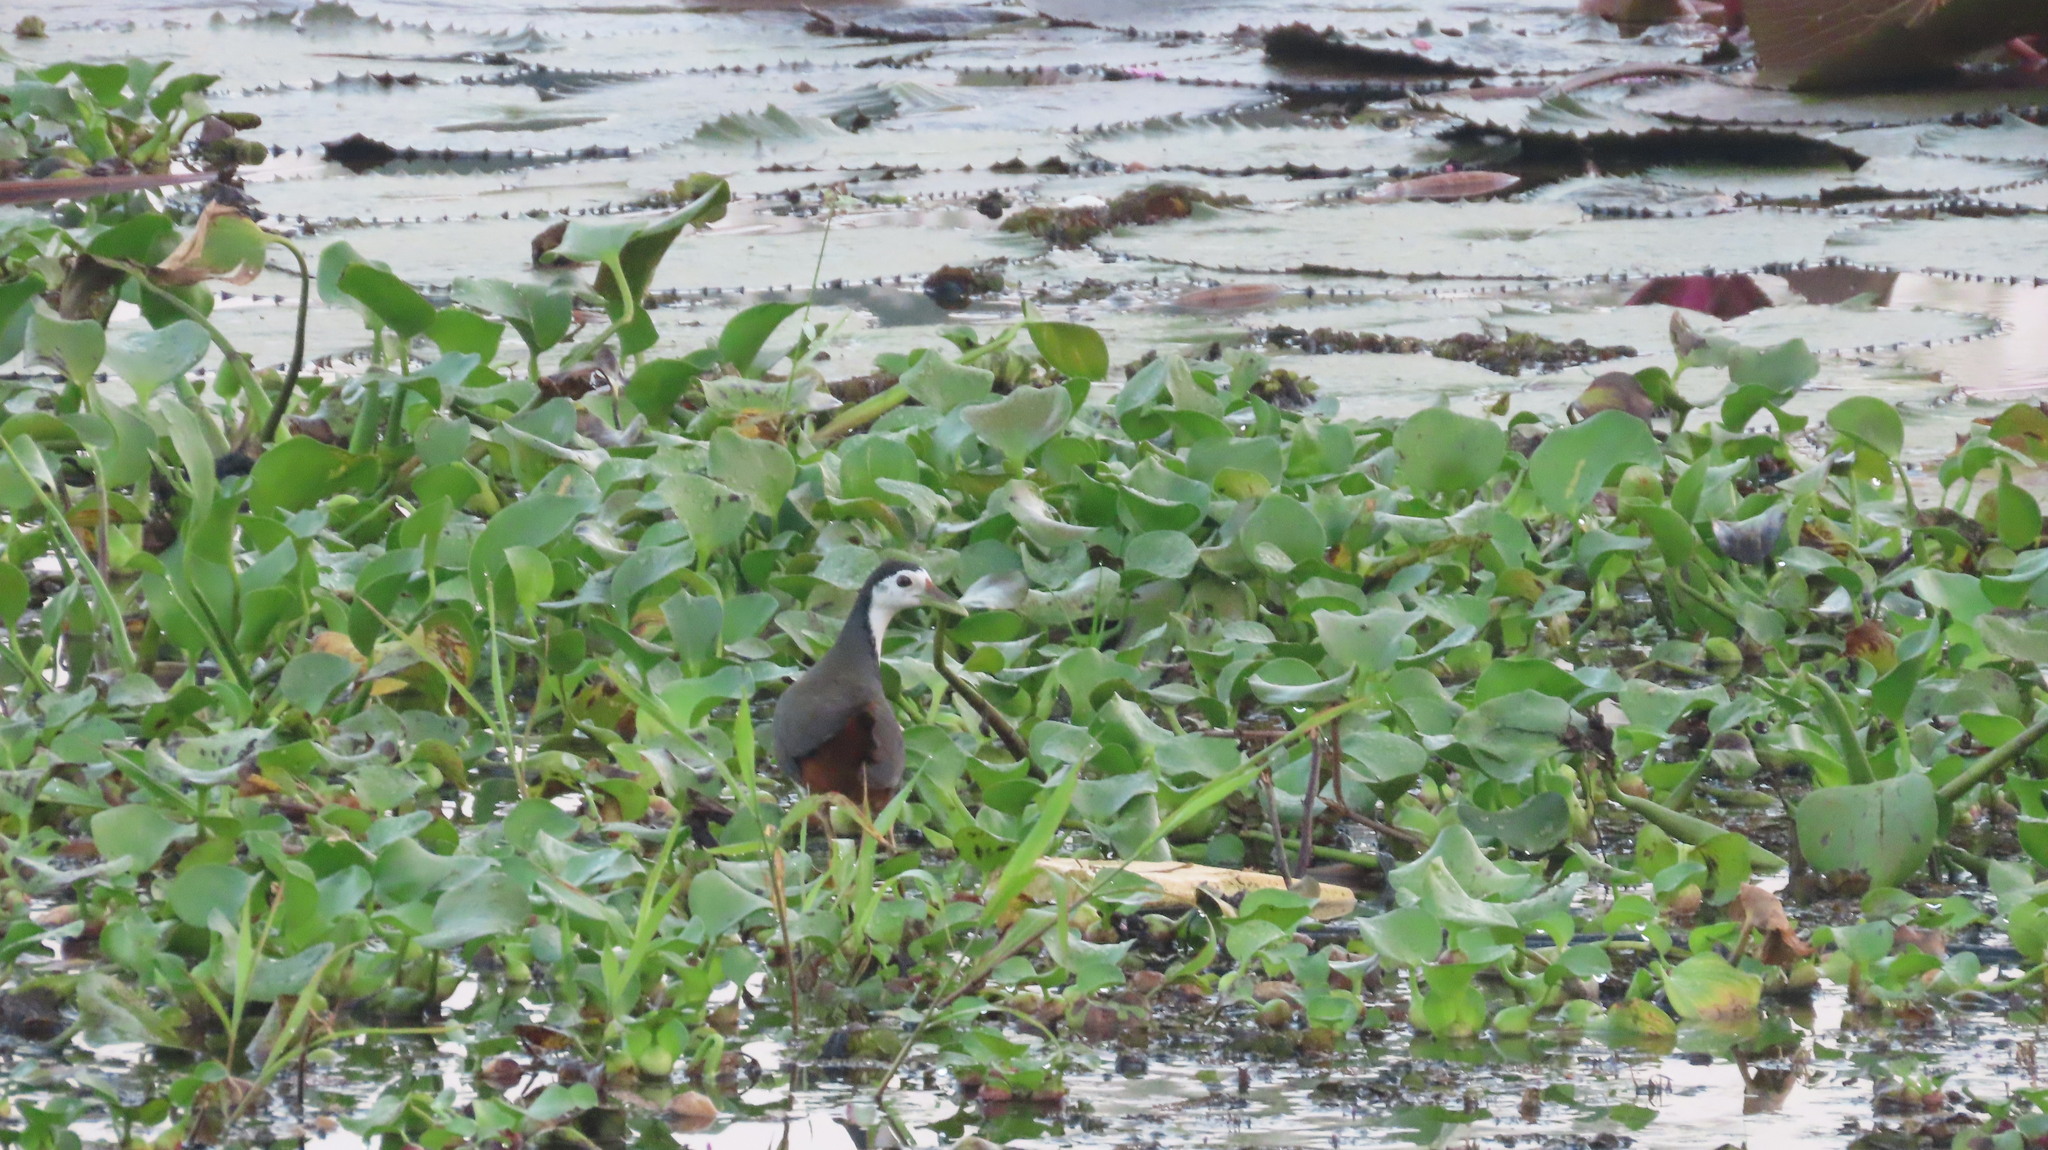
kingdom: Animalia
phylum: Chordata
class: Aves
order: Gruiformes
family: Rallidae
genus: Amaurornis
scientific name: Amaurornis phoenicurus
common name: White-breasted waterhen
